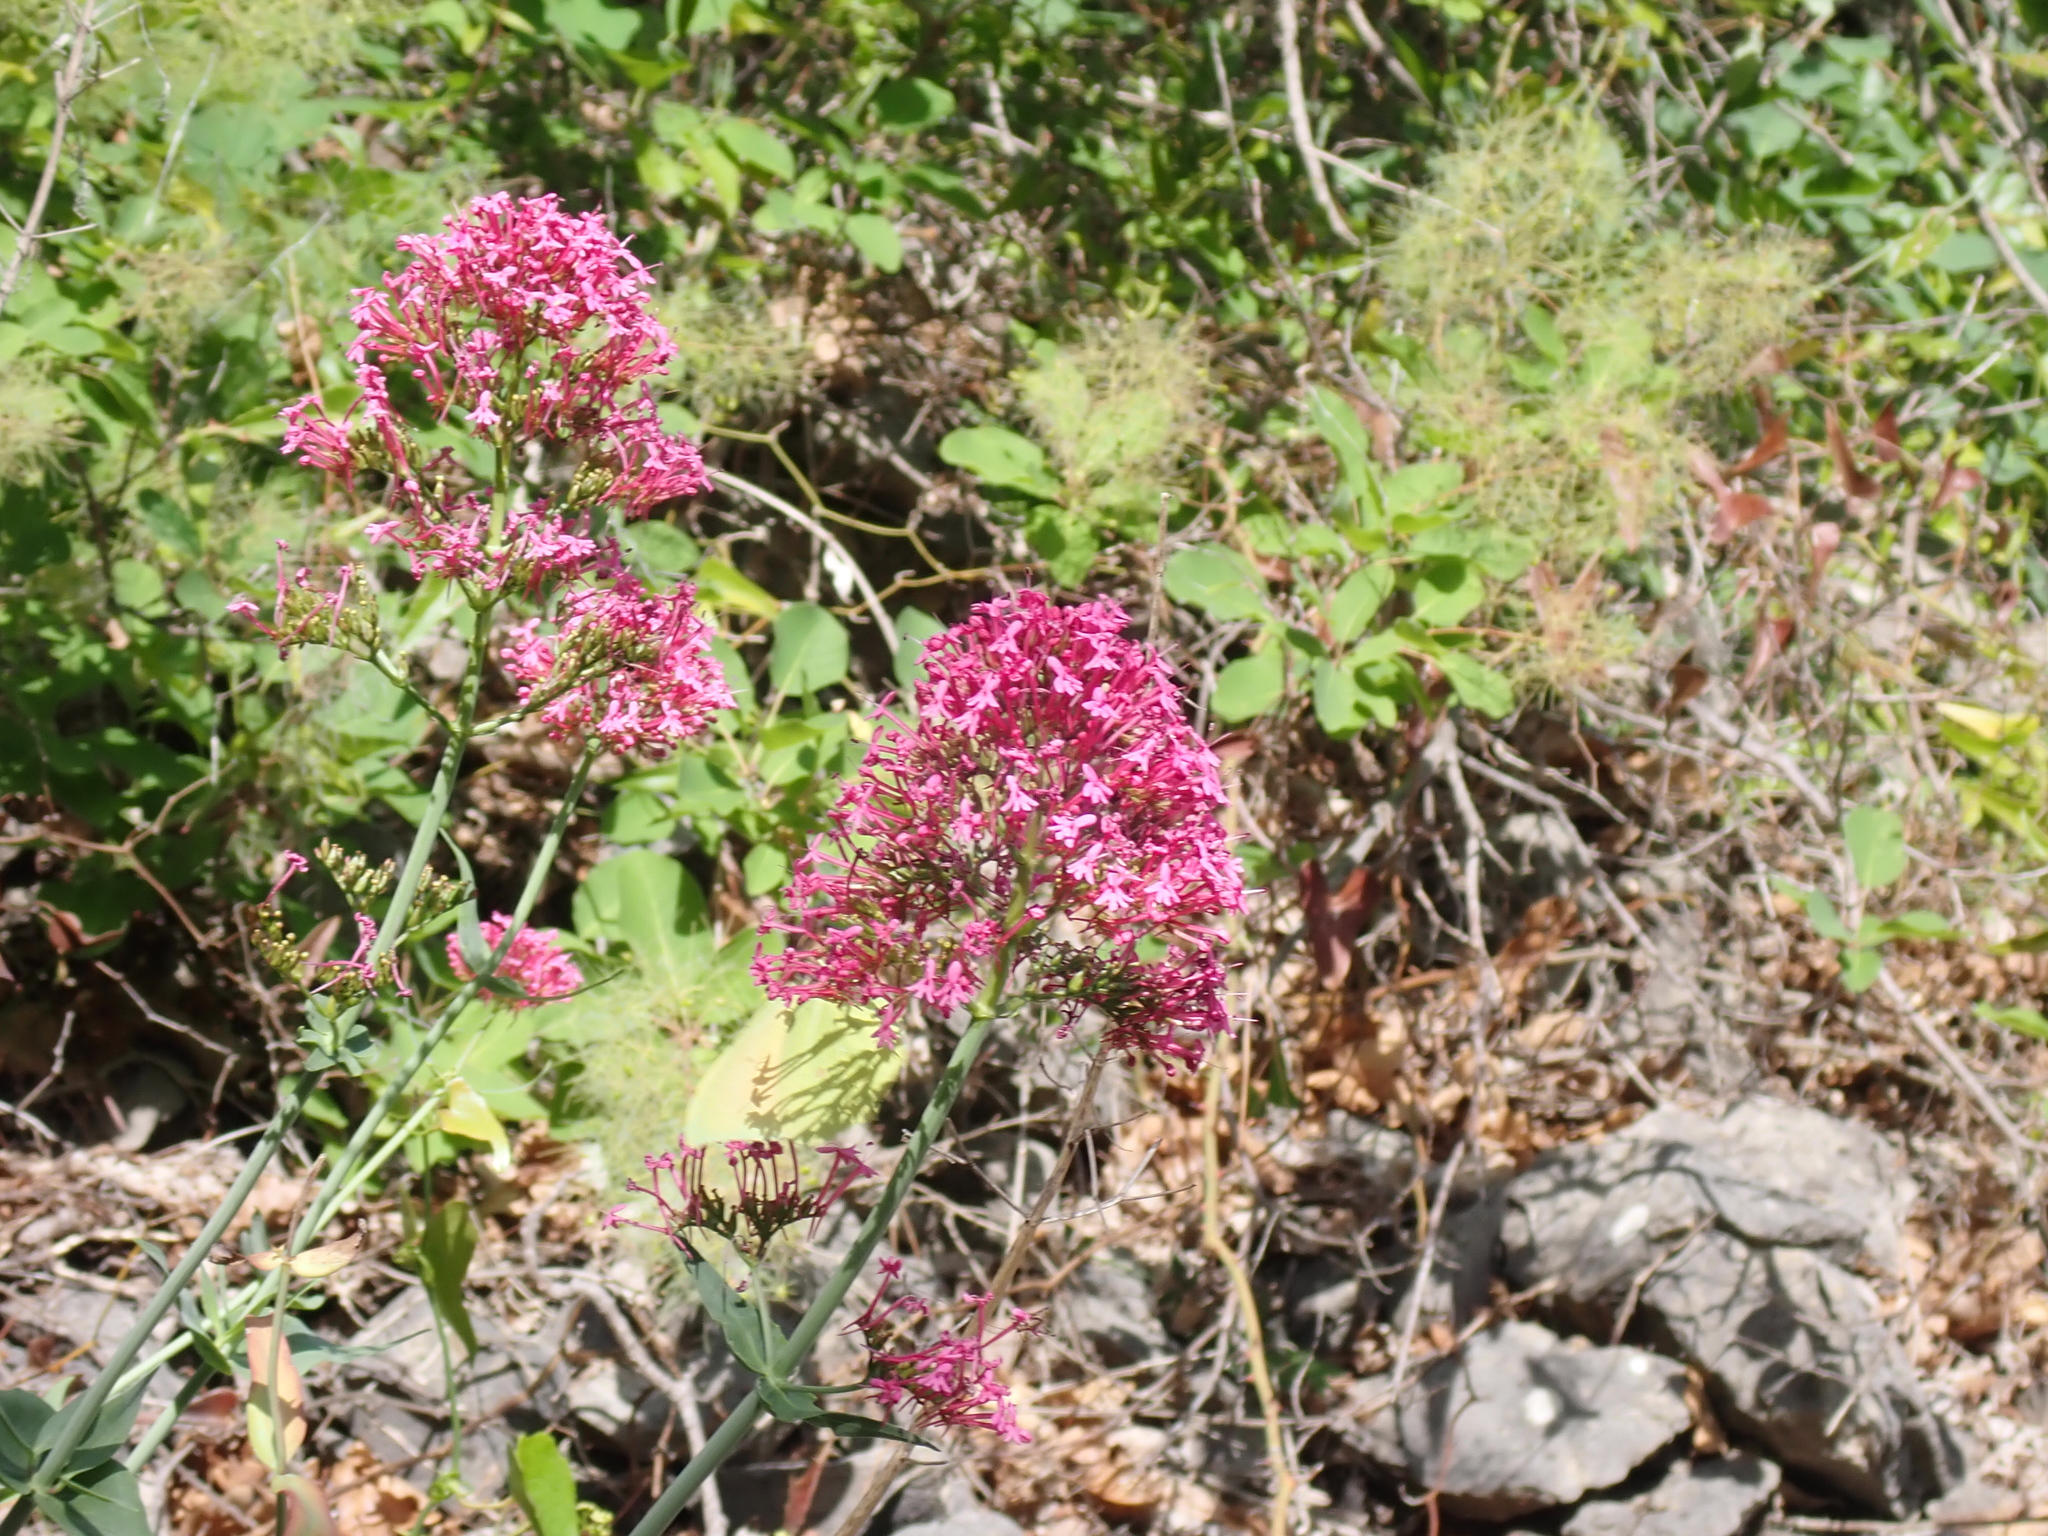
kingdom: Plantae
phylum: Tracheophyta
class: Magnoliopsida
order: Dipsacales
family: Caprifoliaceae
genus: Centranthus
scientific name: Centranthus ruber
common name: Red valerian
